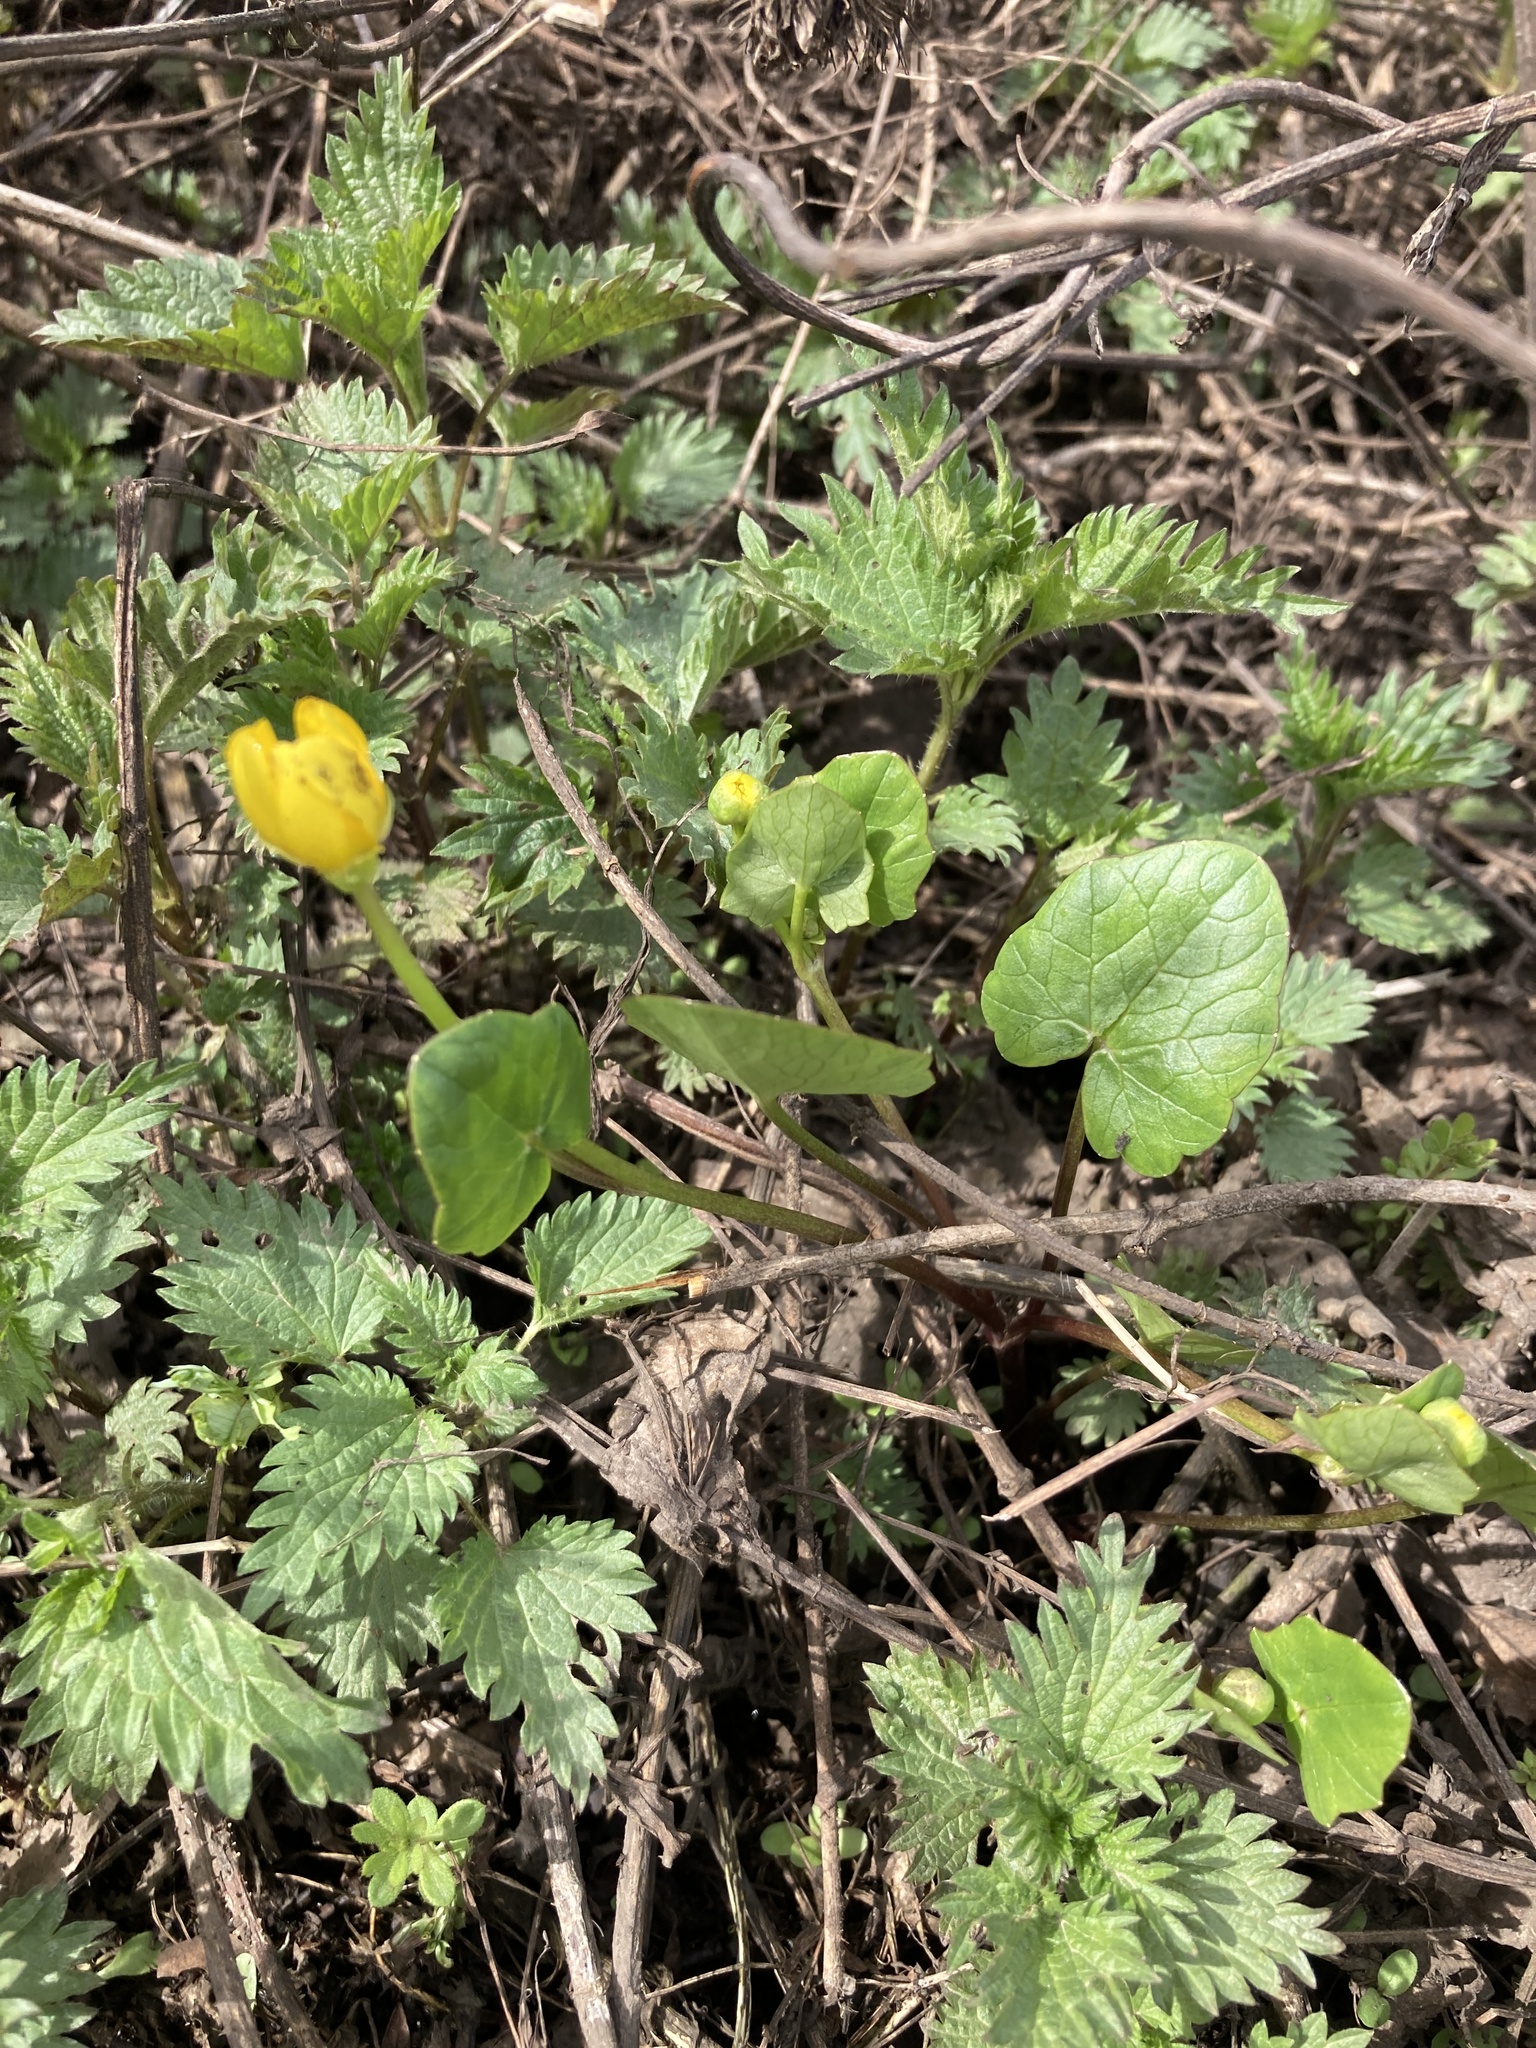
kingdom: Plantae
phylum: Tracheophyta
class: Magnoliopsida
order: Ranunculales
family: Ranunculaceae
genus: Ficaria
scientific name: Ficaria verna
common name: Lesser celandine
